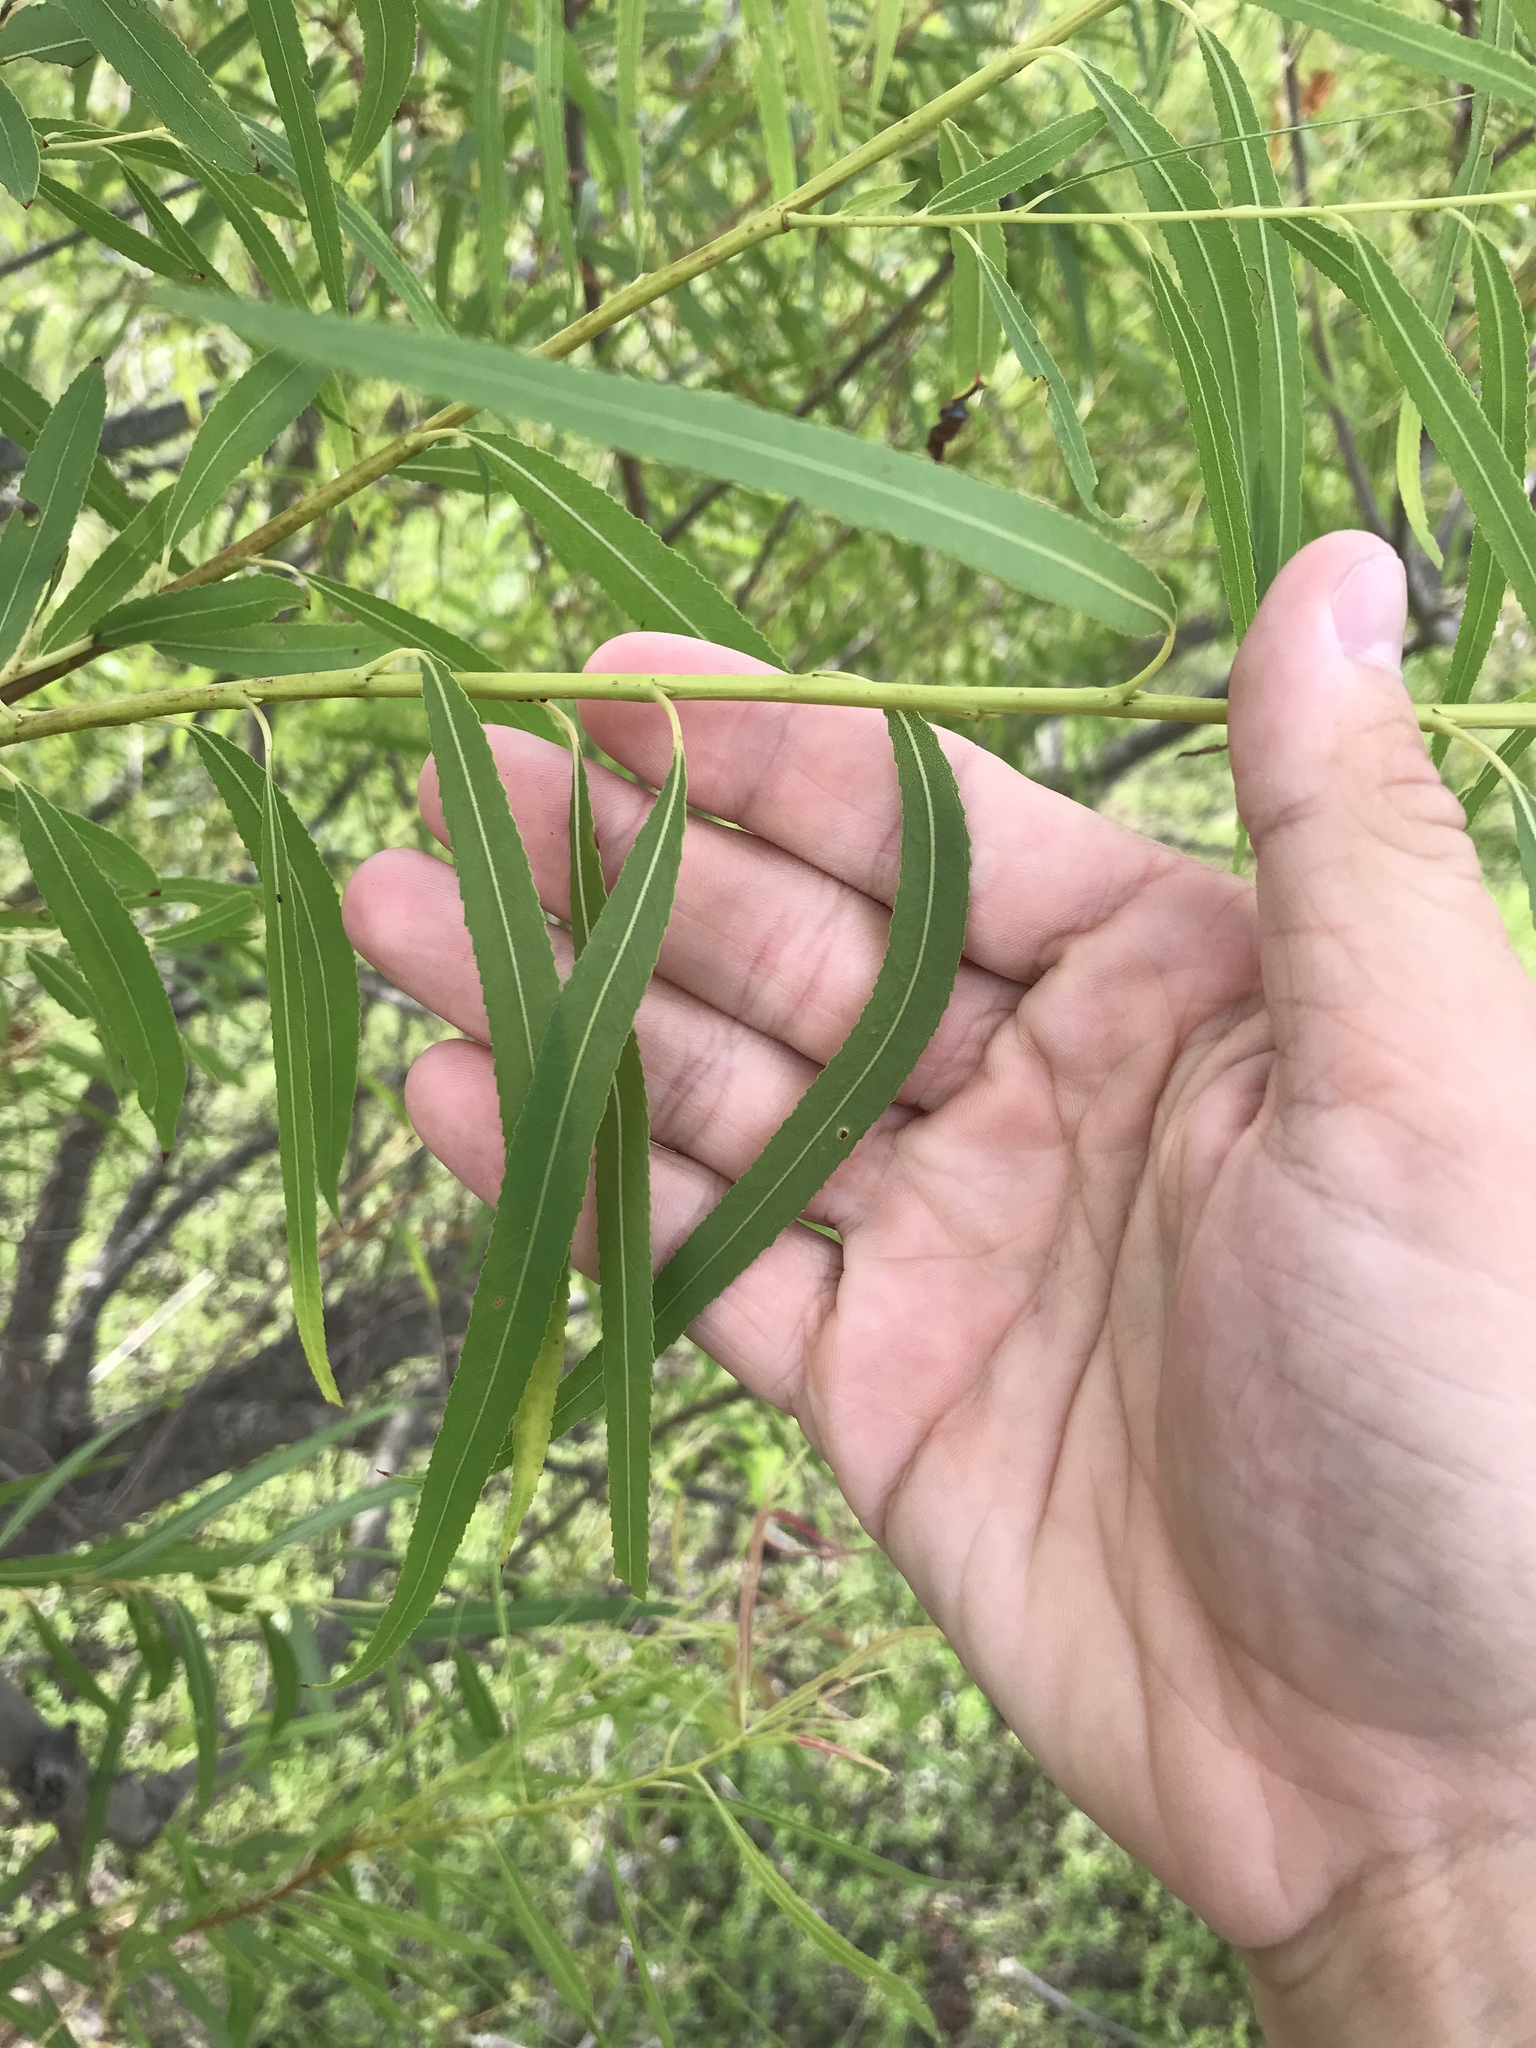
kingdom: Plantae
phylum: Tracheophyta
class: Magnoliopsida
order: Malpighiales
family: Salicaceae
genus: Salix
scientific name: Salix nigra
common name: Black willow
